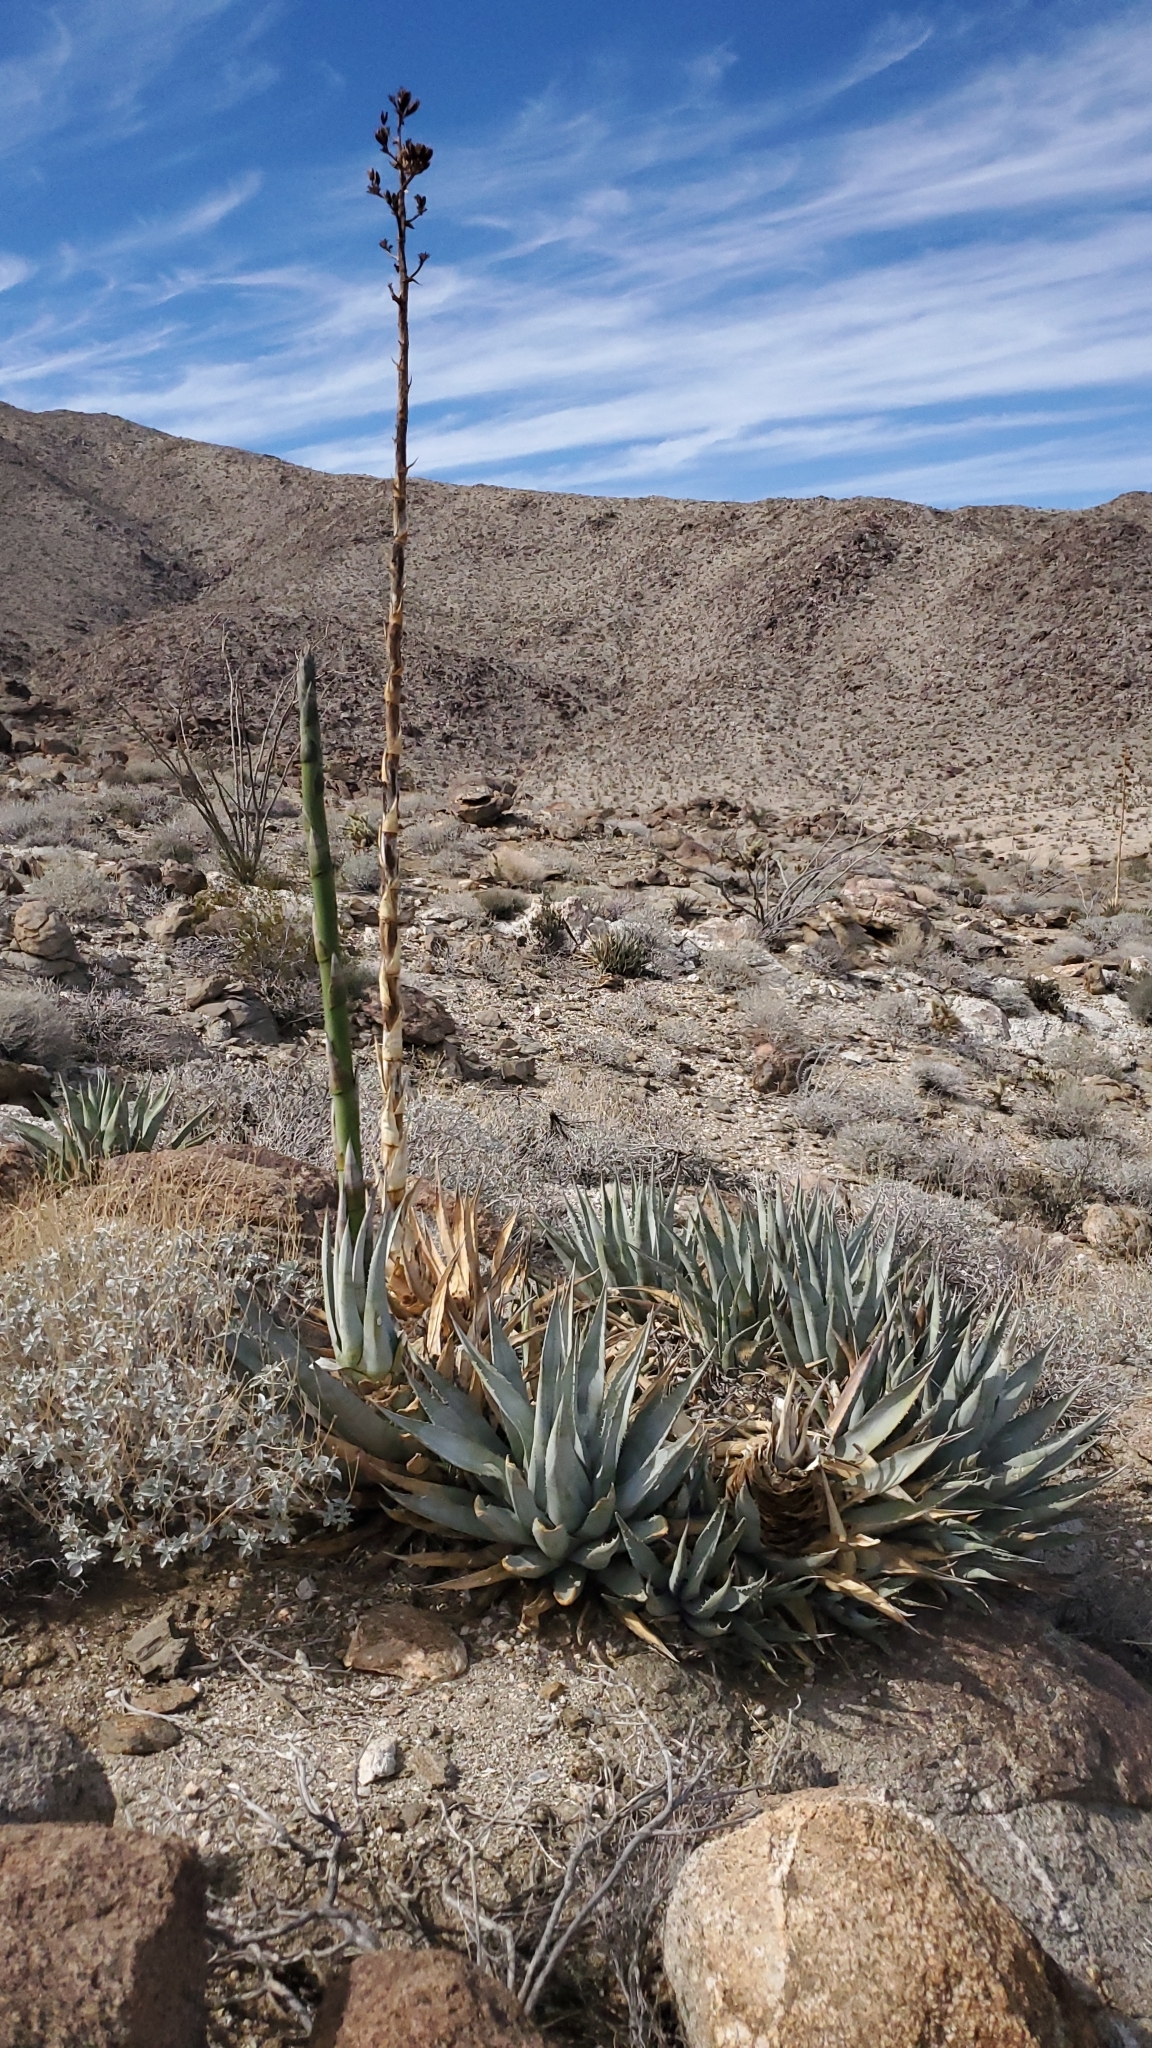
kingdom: Plantae
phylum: Tracheophyta
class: Liliopsida
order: Asparagales
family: Asparagaceae
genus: Agave
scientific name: Agave deserti
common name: Desert agave
